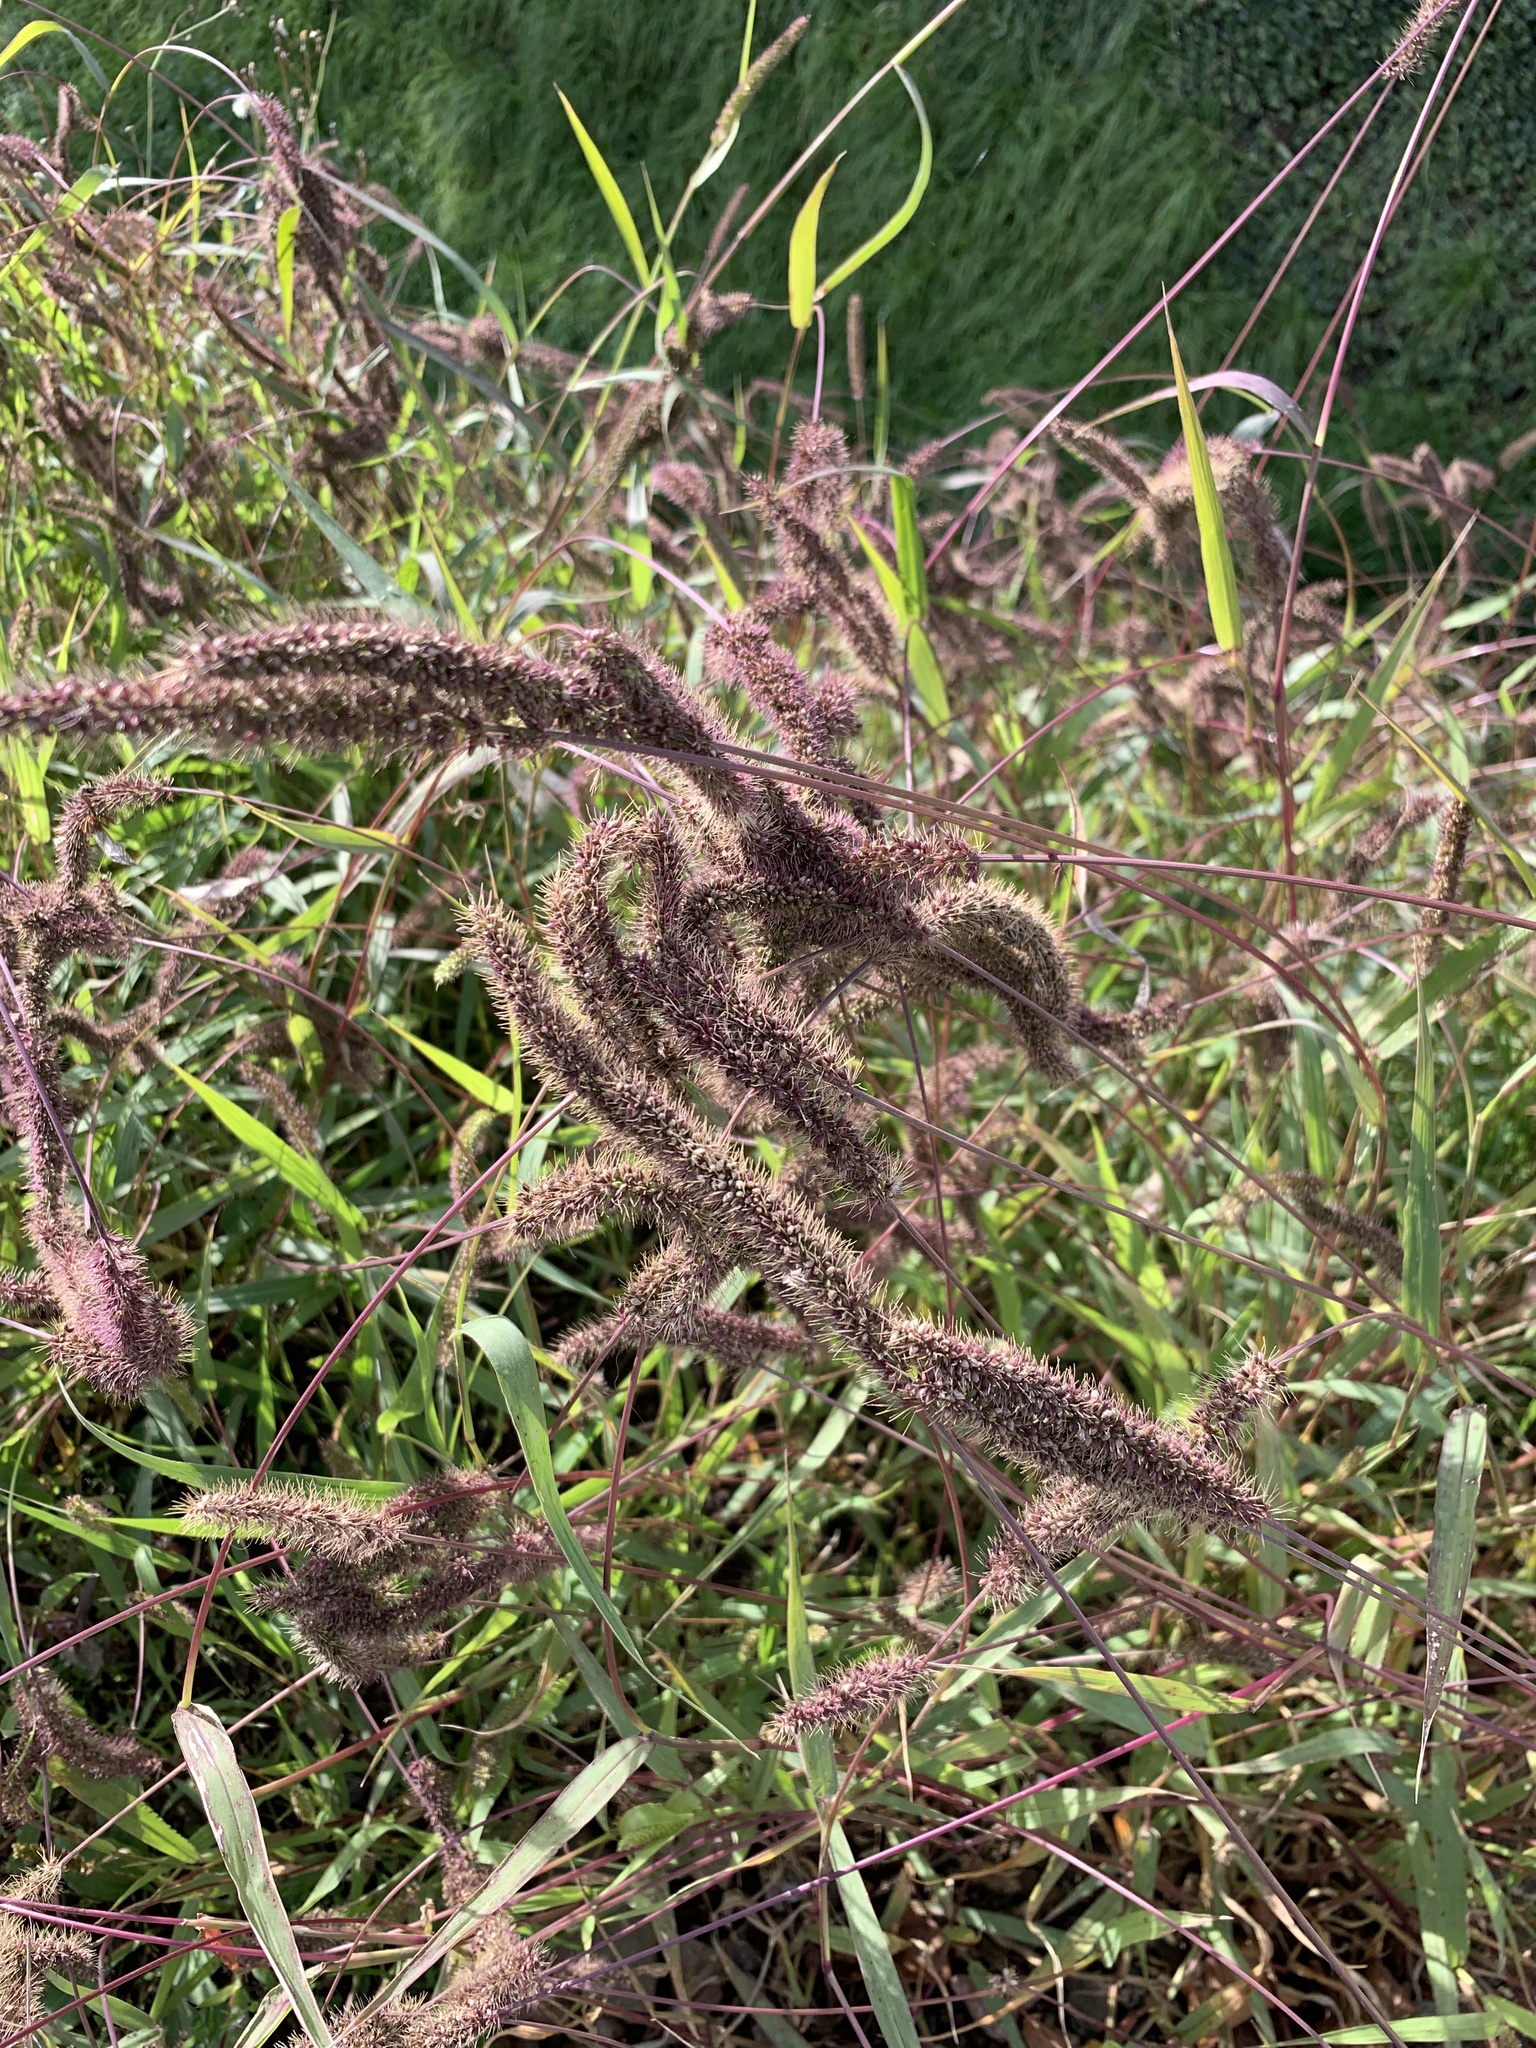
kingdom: Plantae
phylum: Tracheophyta
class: Liliopsida
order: Poales
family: Poaceae
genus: Setaria
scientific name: Setaria verticillata
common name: Hooked bristlegrass
